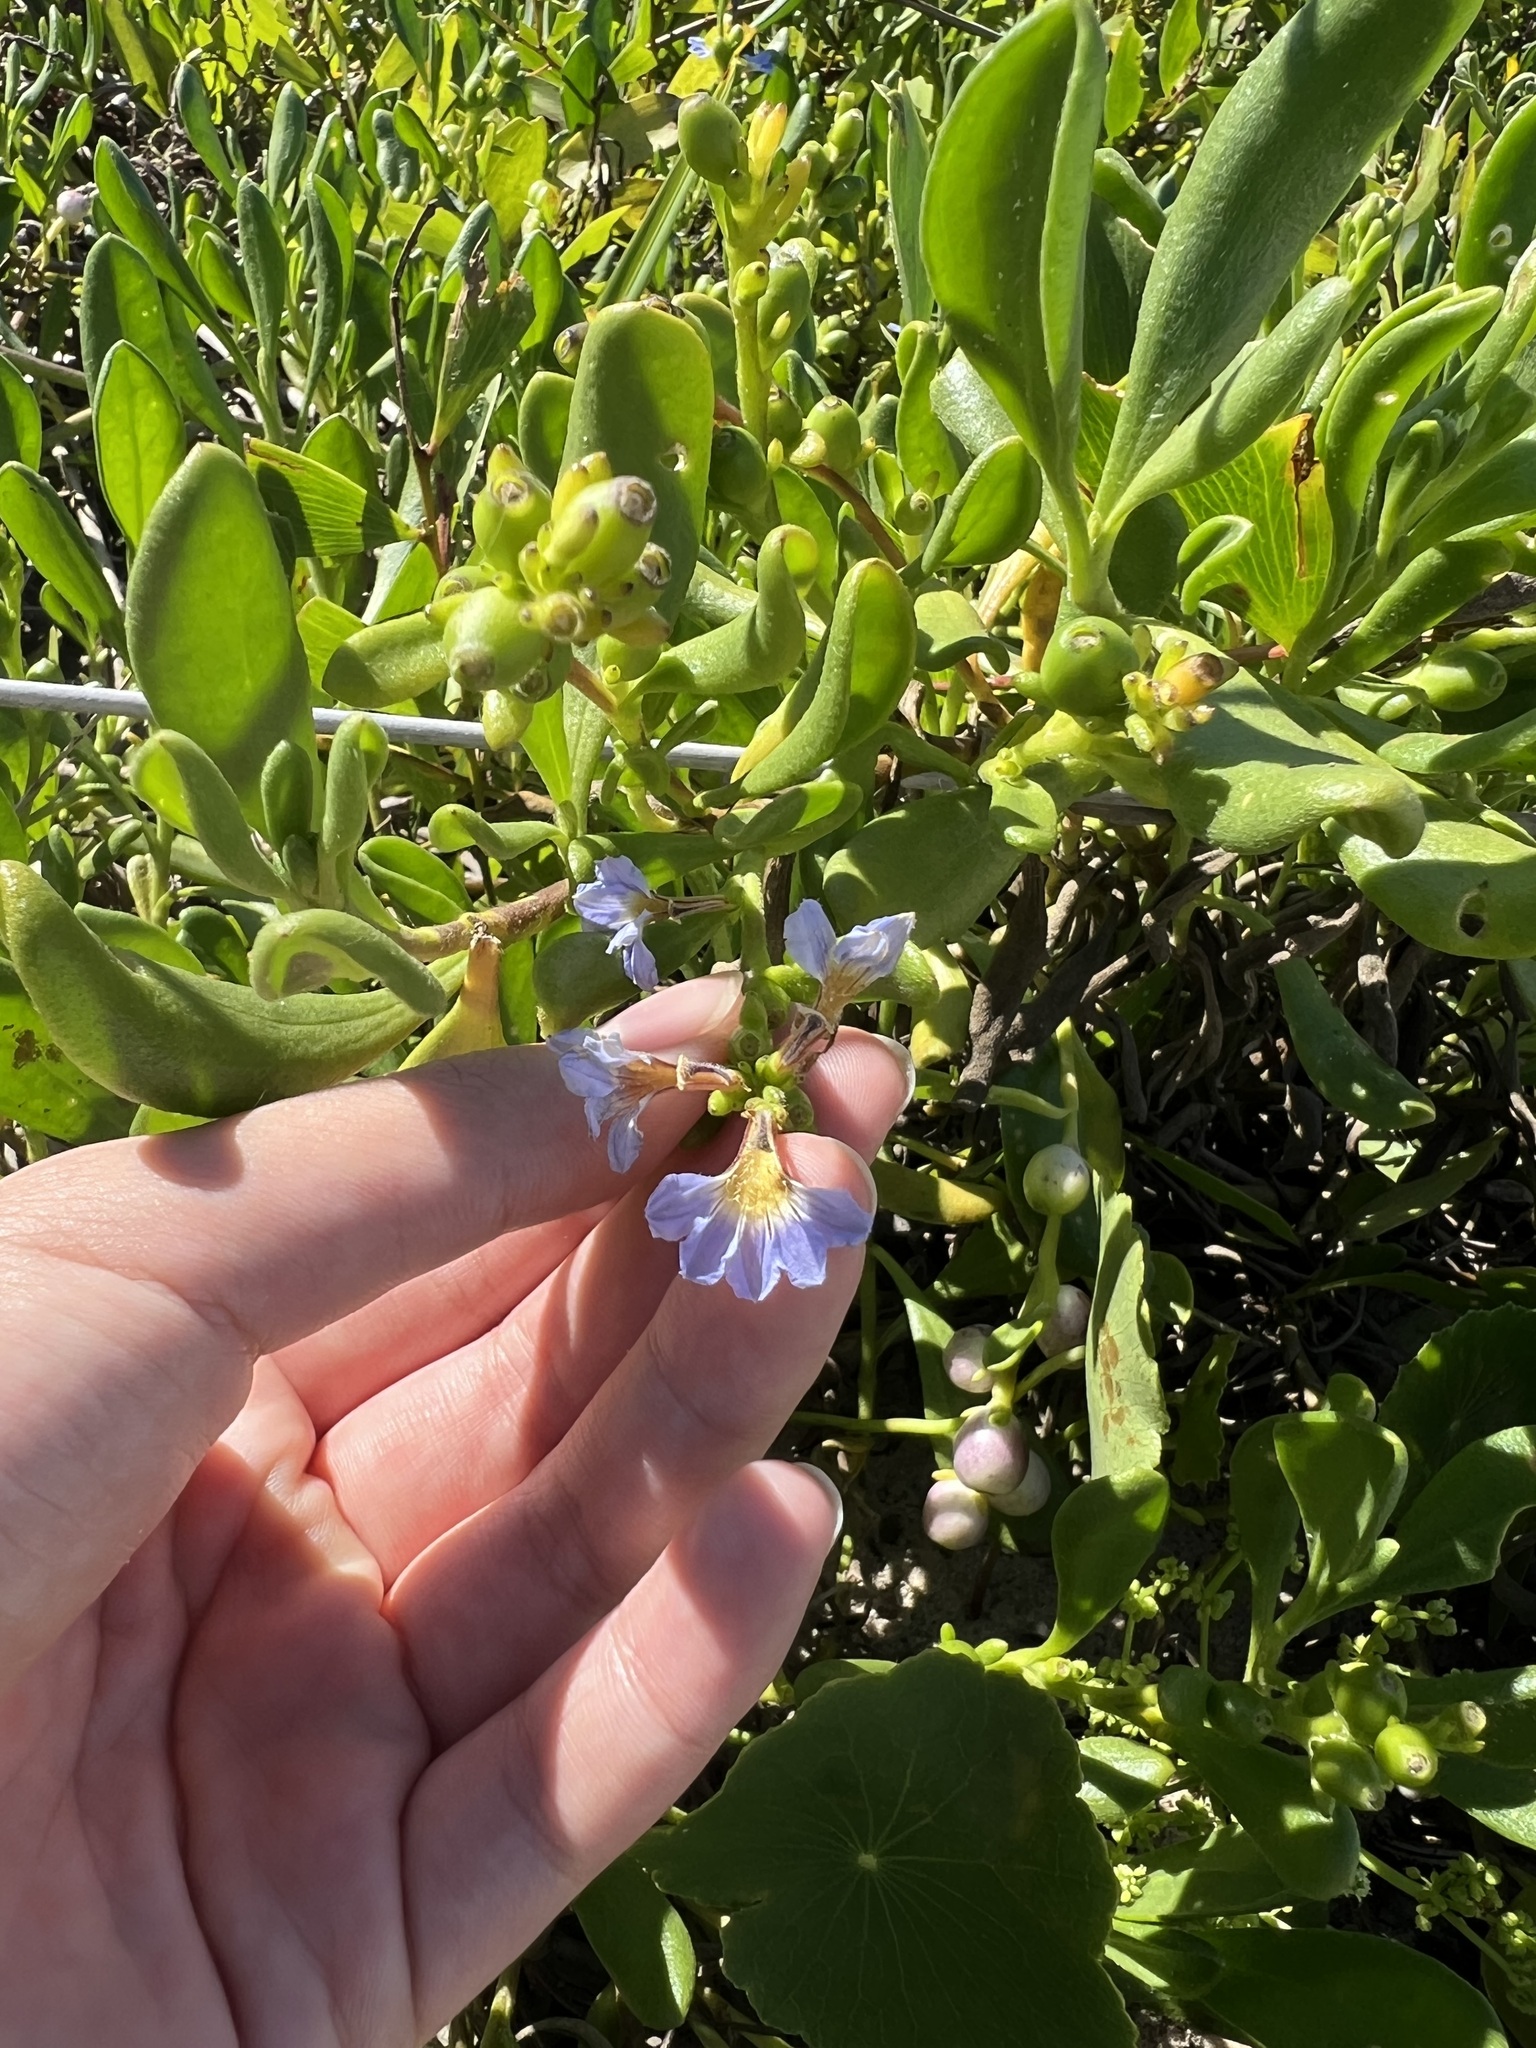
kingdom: Plantae
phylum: Tracheophyta
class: Magnoliopsida
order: Asterales
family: Goodeniaceae
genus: Scaevola
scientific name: Scaevola calendulacea
